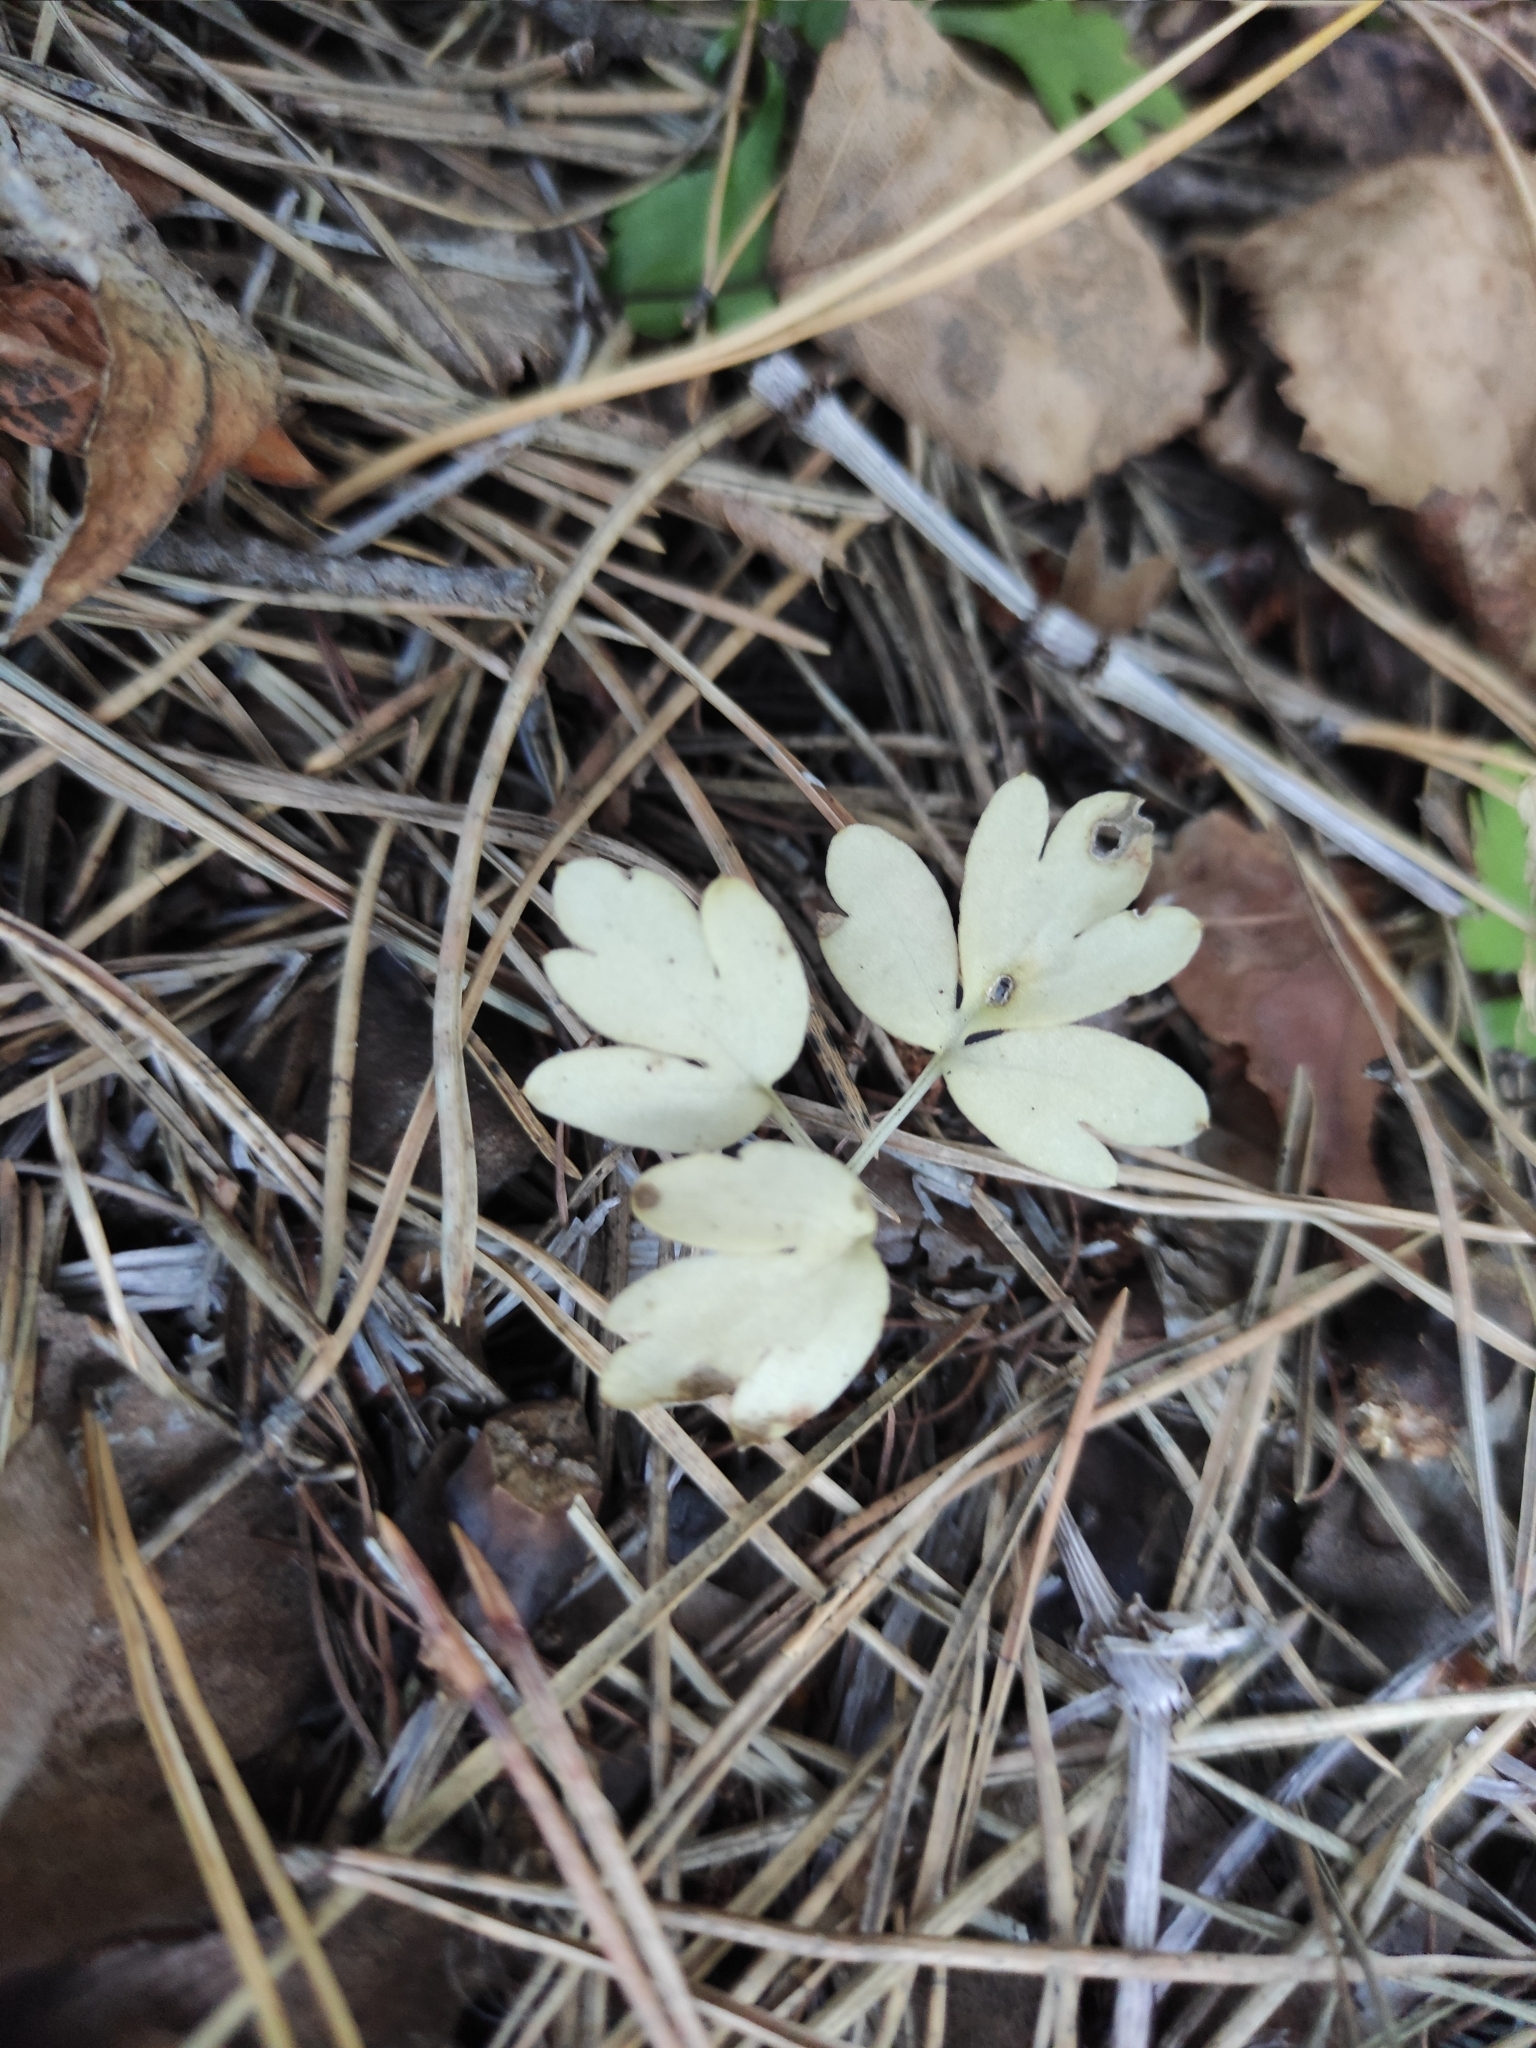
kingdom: Plantae
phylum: Tracheophyta
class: Magnoliopsida
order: Dipsacales
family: Viburnaceae
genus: Adoxa
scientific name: Adoxa moschatellina
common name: Moschatel
